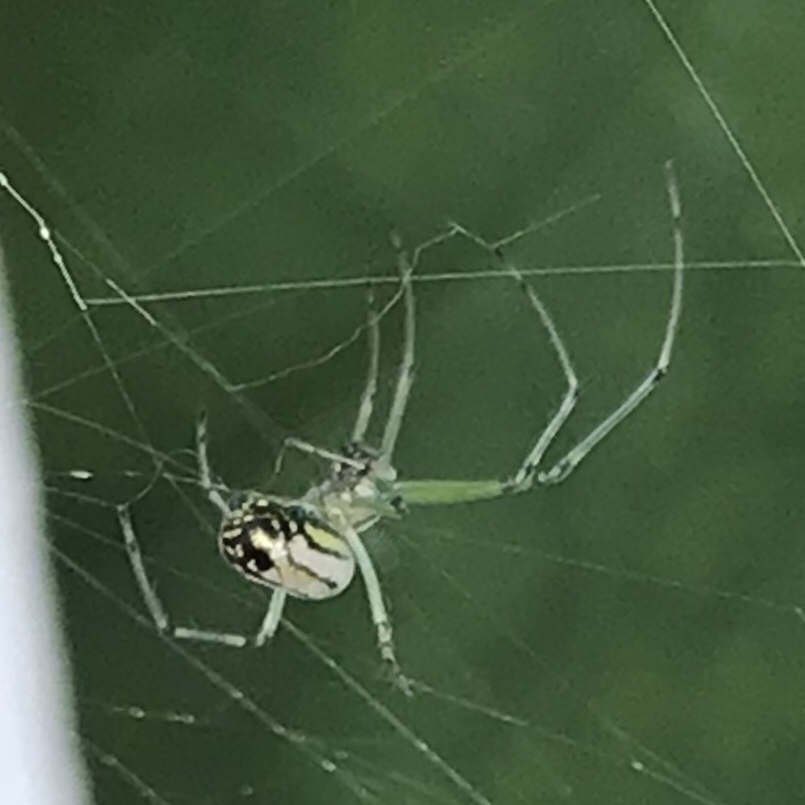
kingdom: Animalia
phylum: Arthropoda
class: Arachnida
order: Araneae
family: Tetragnathidae
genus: Leucauge
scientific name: Leucauge venusta
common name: Longjawed orb weavers
